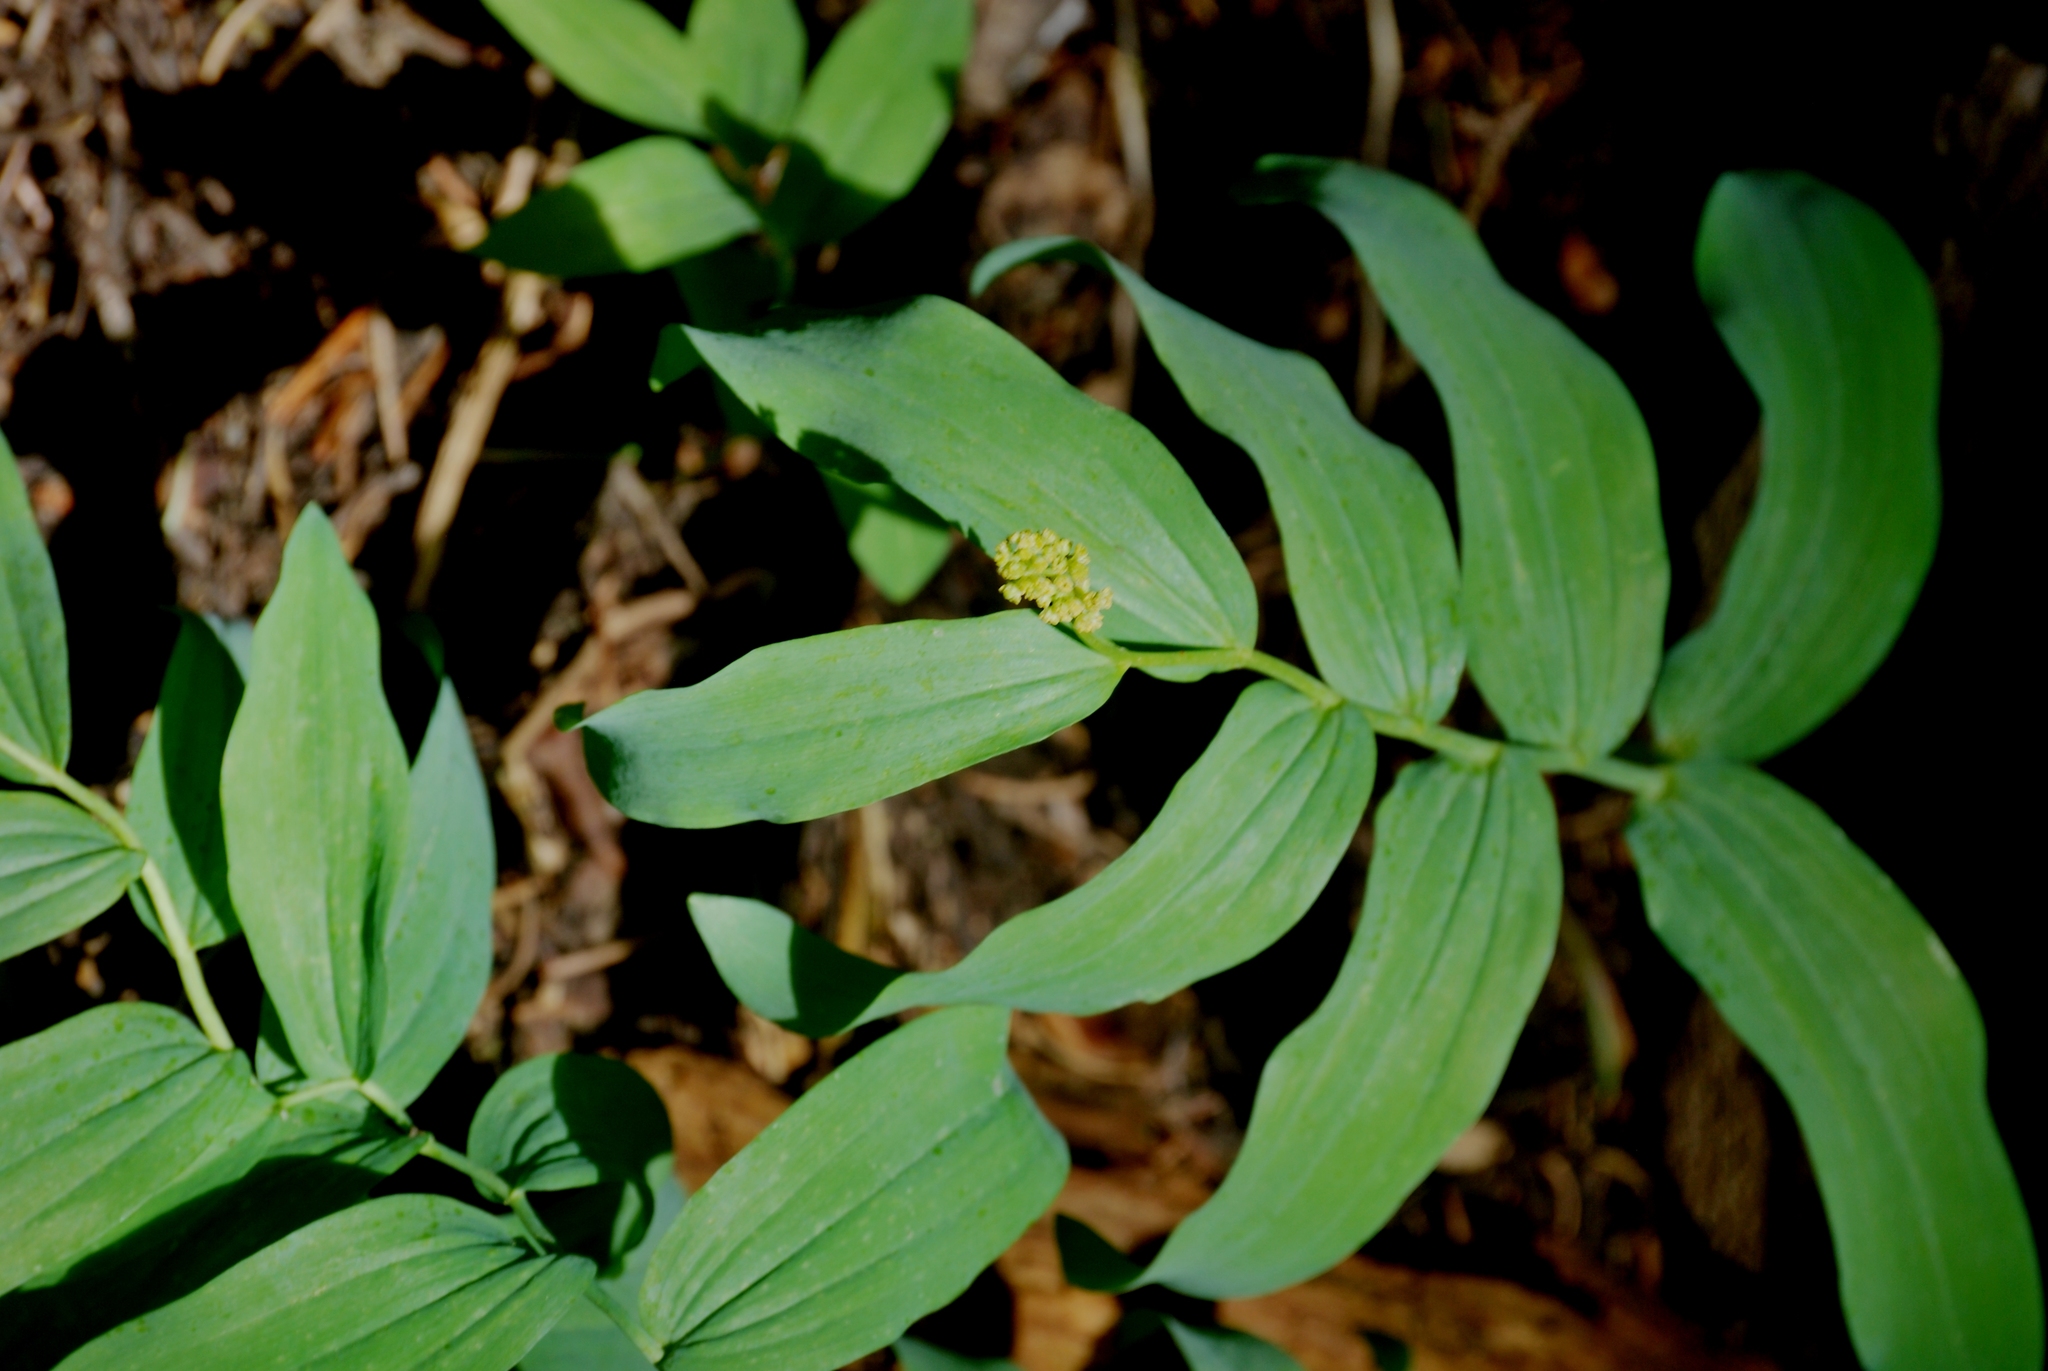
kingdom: Plantae
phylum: Tracheophyta
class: Liliopsida
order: Asparagales
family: Asparagaceae
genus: Maianthemum
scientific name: Maianthemum racemosum
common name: False spikenard
